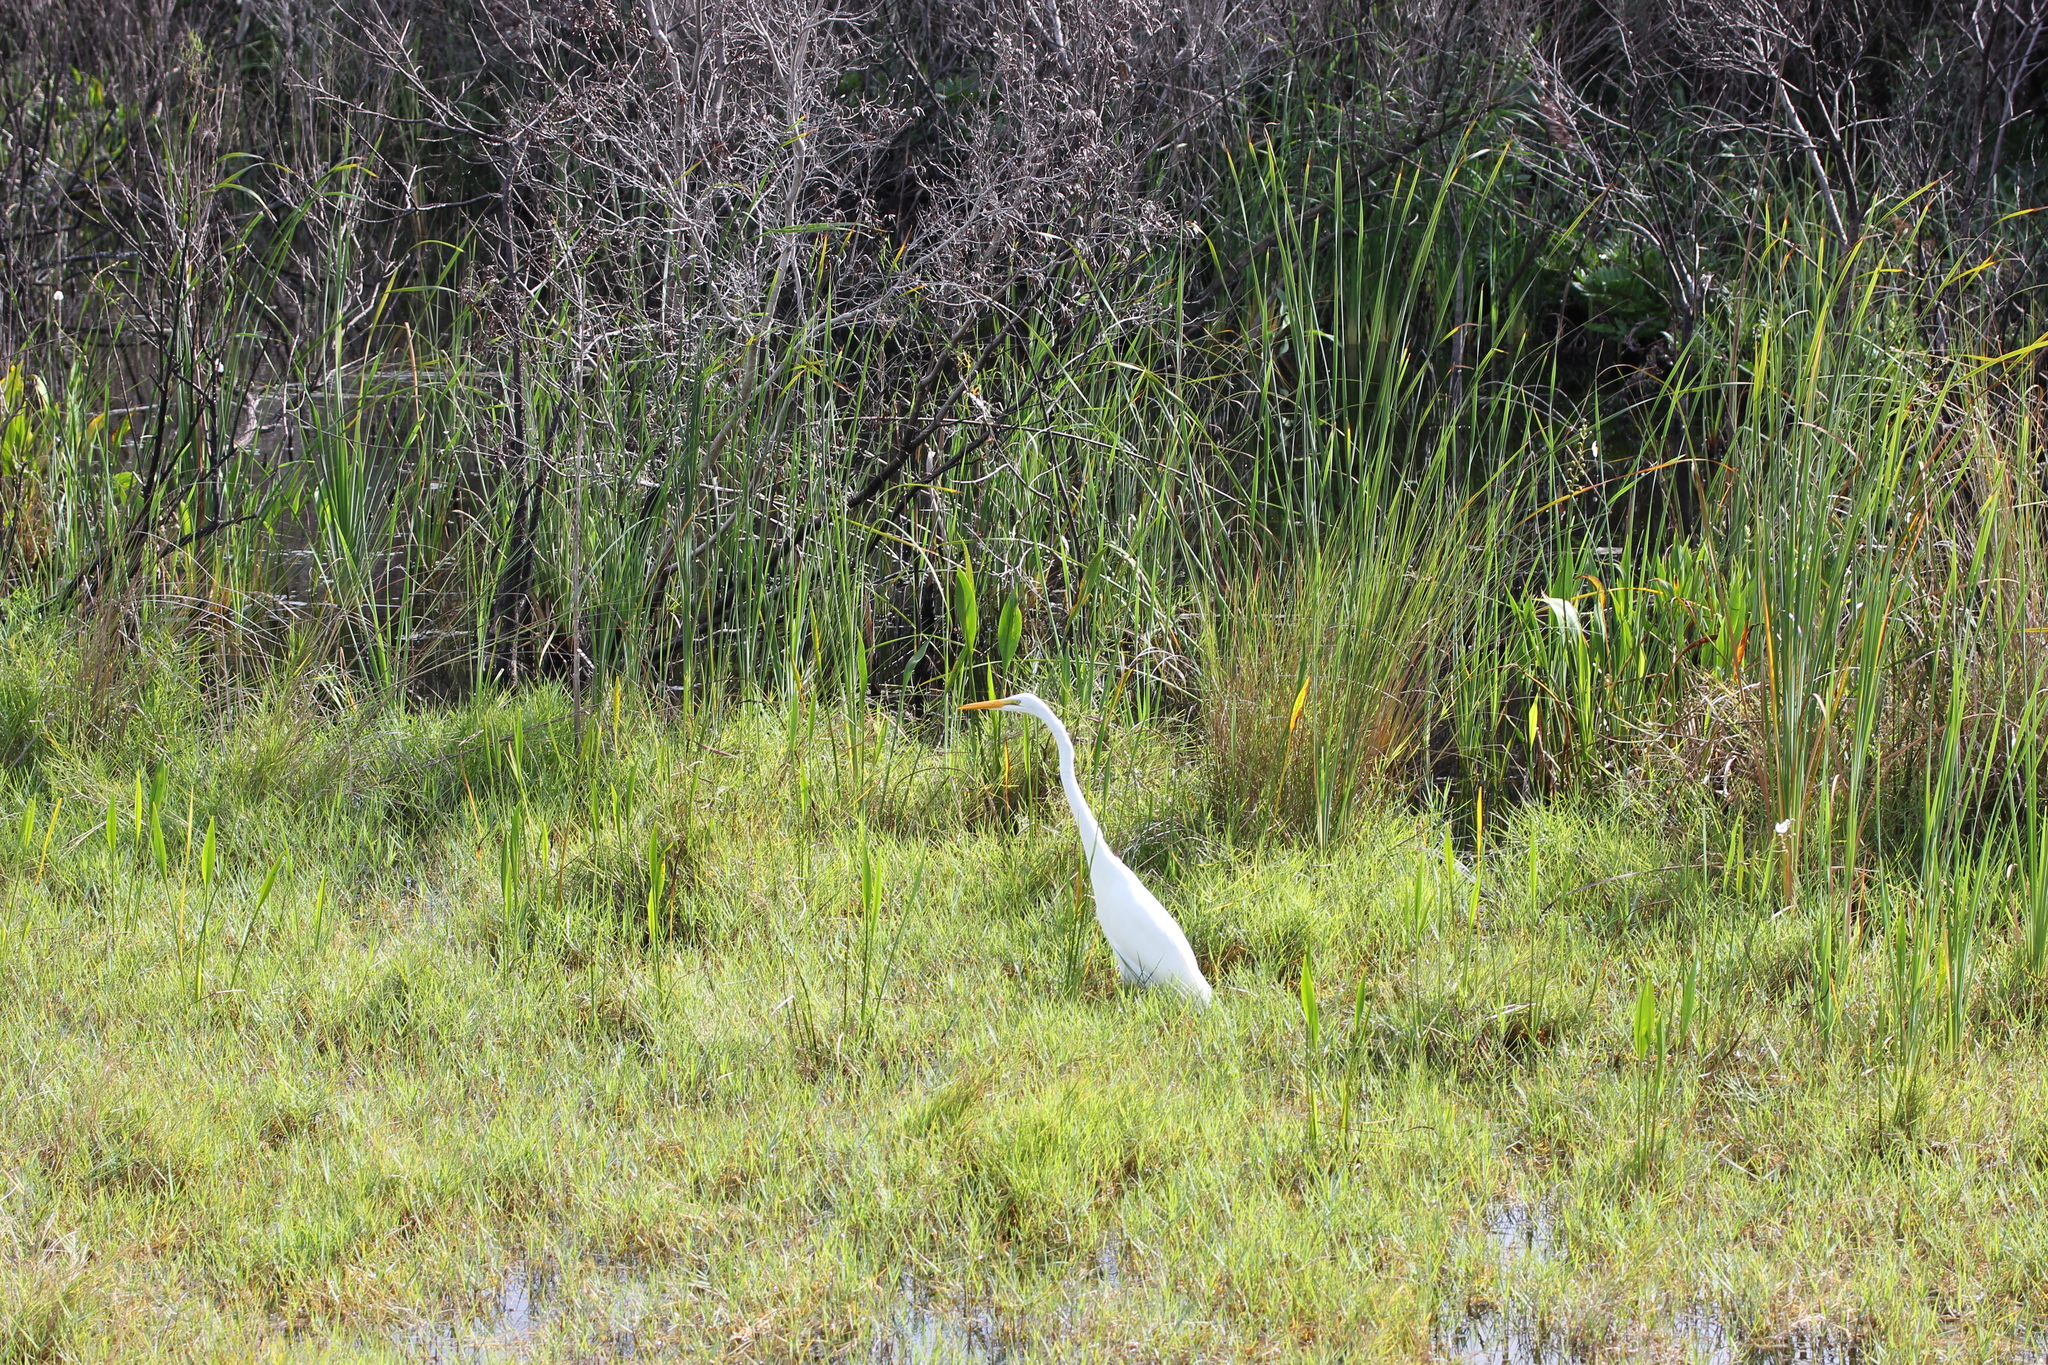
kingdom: Animalia
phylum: Chordata
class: Aves
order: Pelecaniformes
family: Ardeidae
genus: Ardea
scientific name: Ardea alba
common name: Great egret
